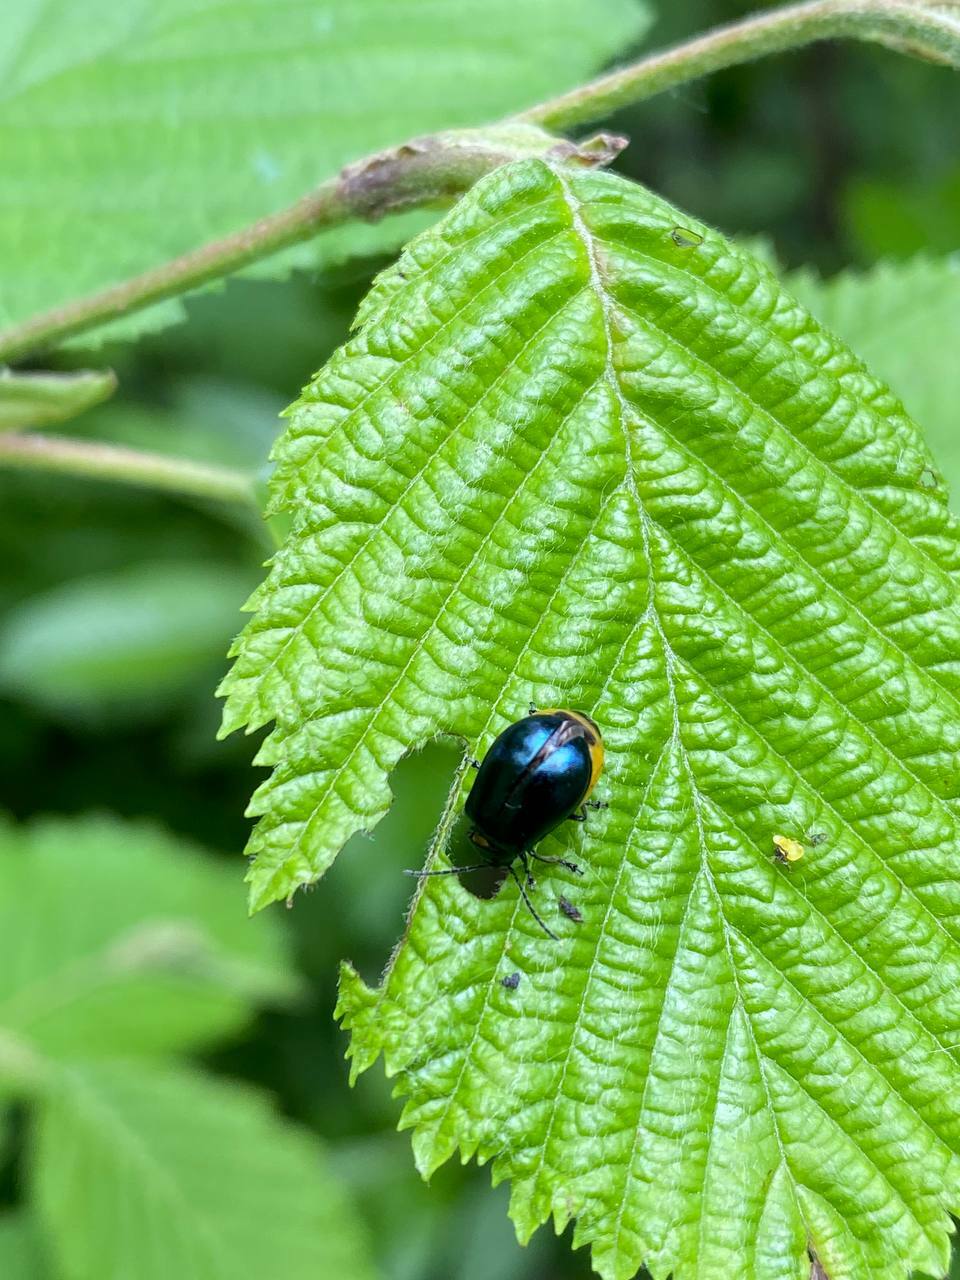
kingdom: Animalia
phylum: Arthropoda
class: Insecta
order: Coleoptera
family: Chrysomelidae
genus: Agelastica
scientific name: Agelastica alni
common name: Alder leaf beetle
